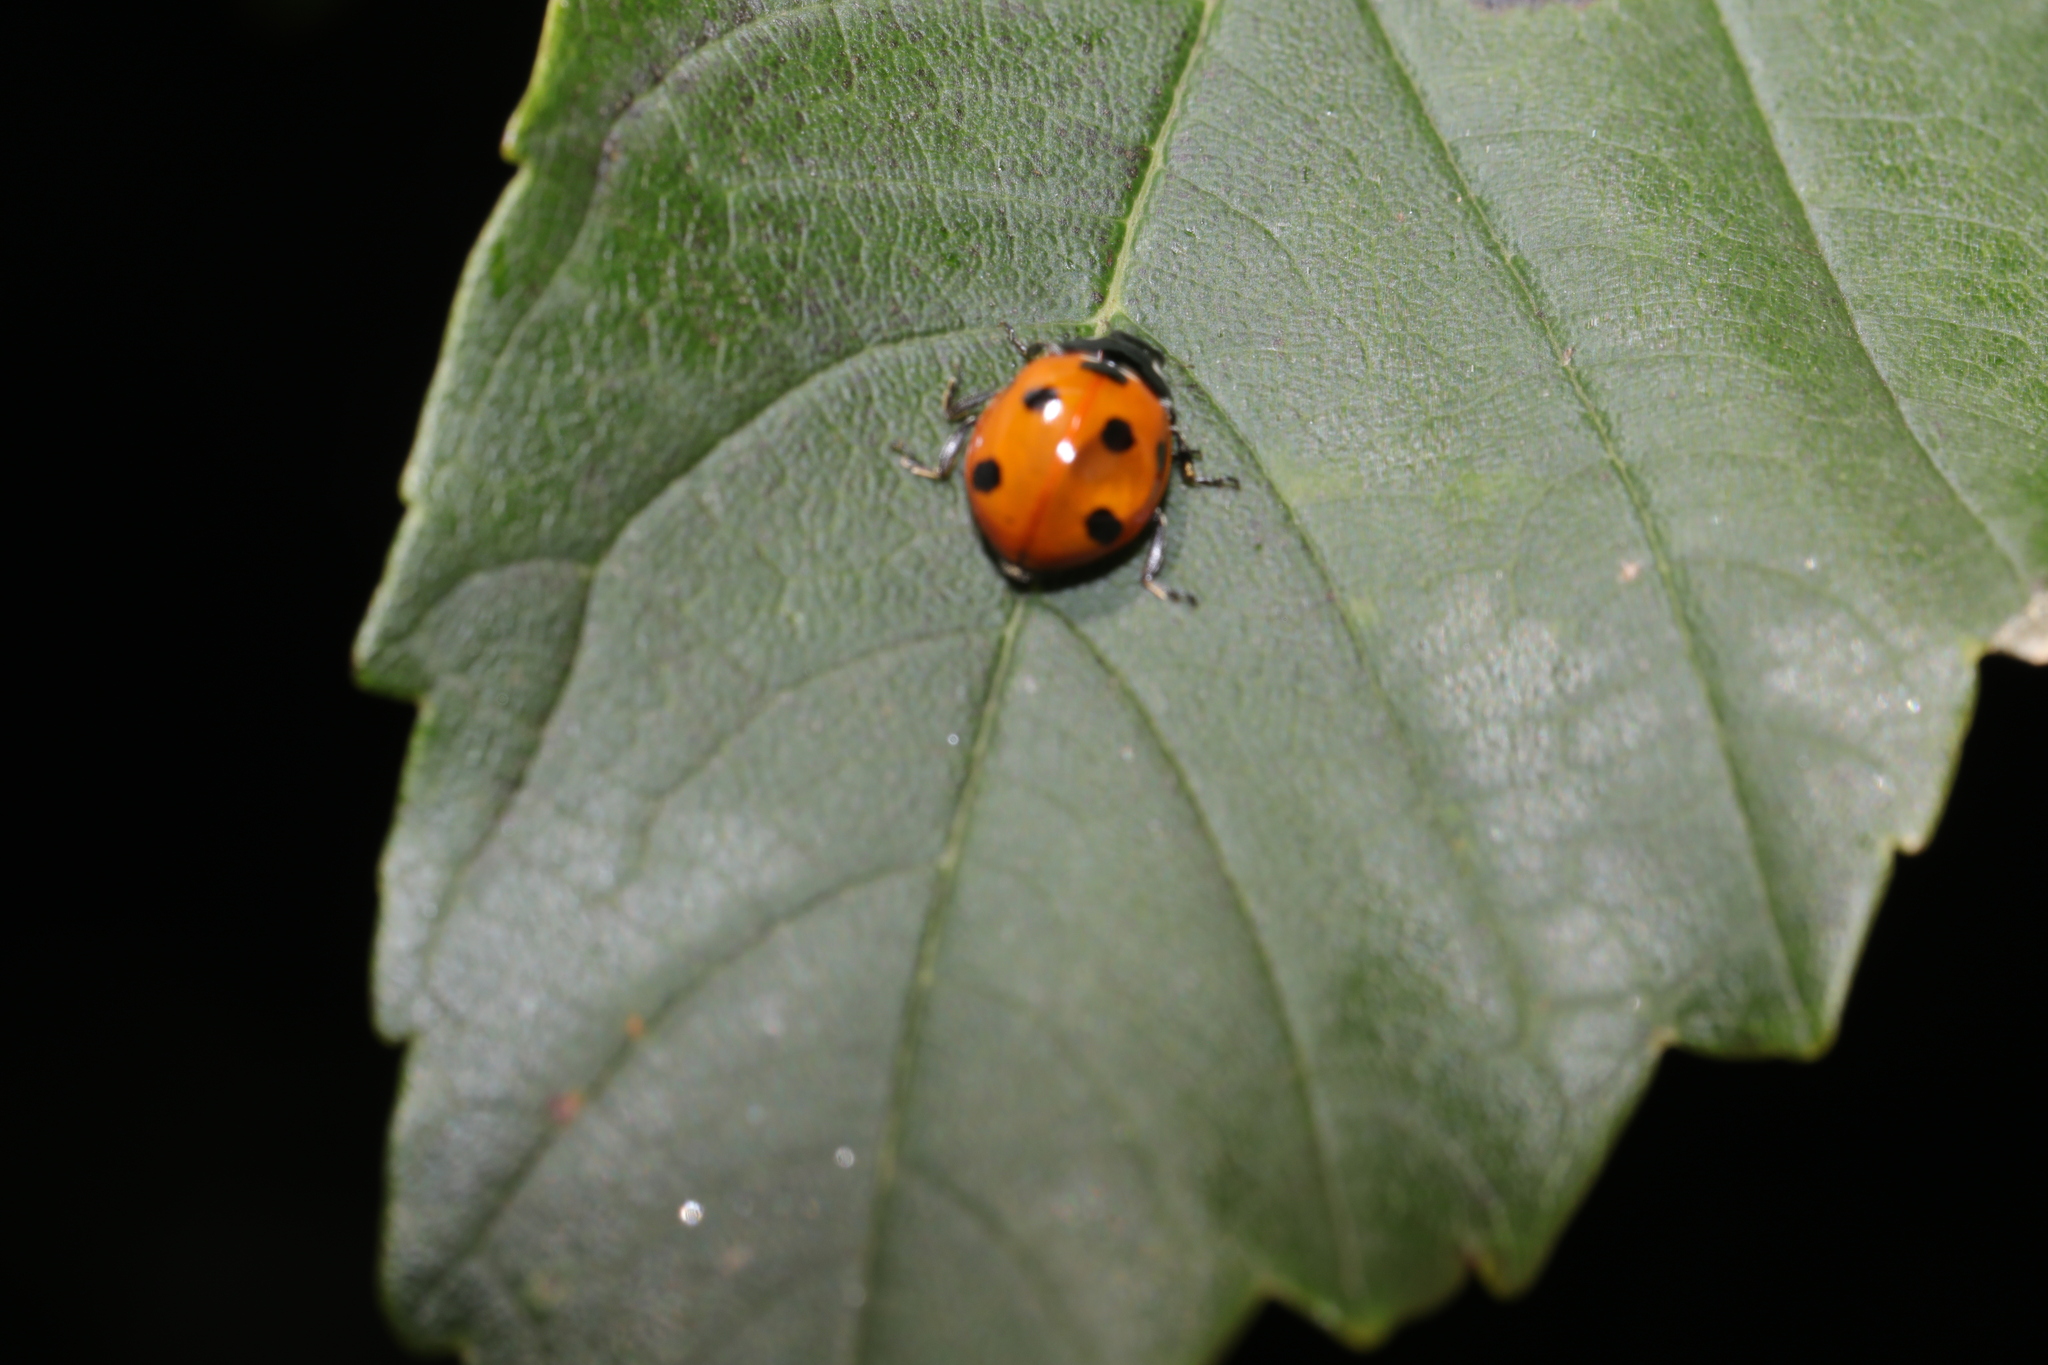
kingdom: Animalia
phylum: Arthropoda
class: Insecta
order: Coleoptera
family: Coccinellidae
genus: Coccinella
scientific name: Coccinella septempunctata
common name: Sevenspotted lady beetle
